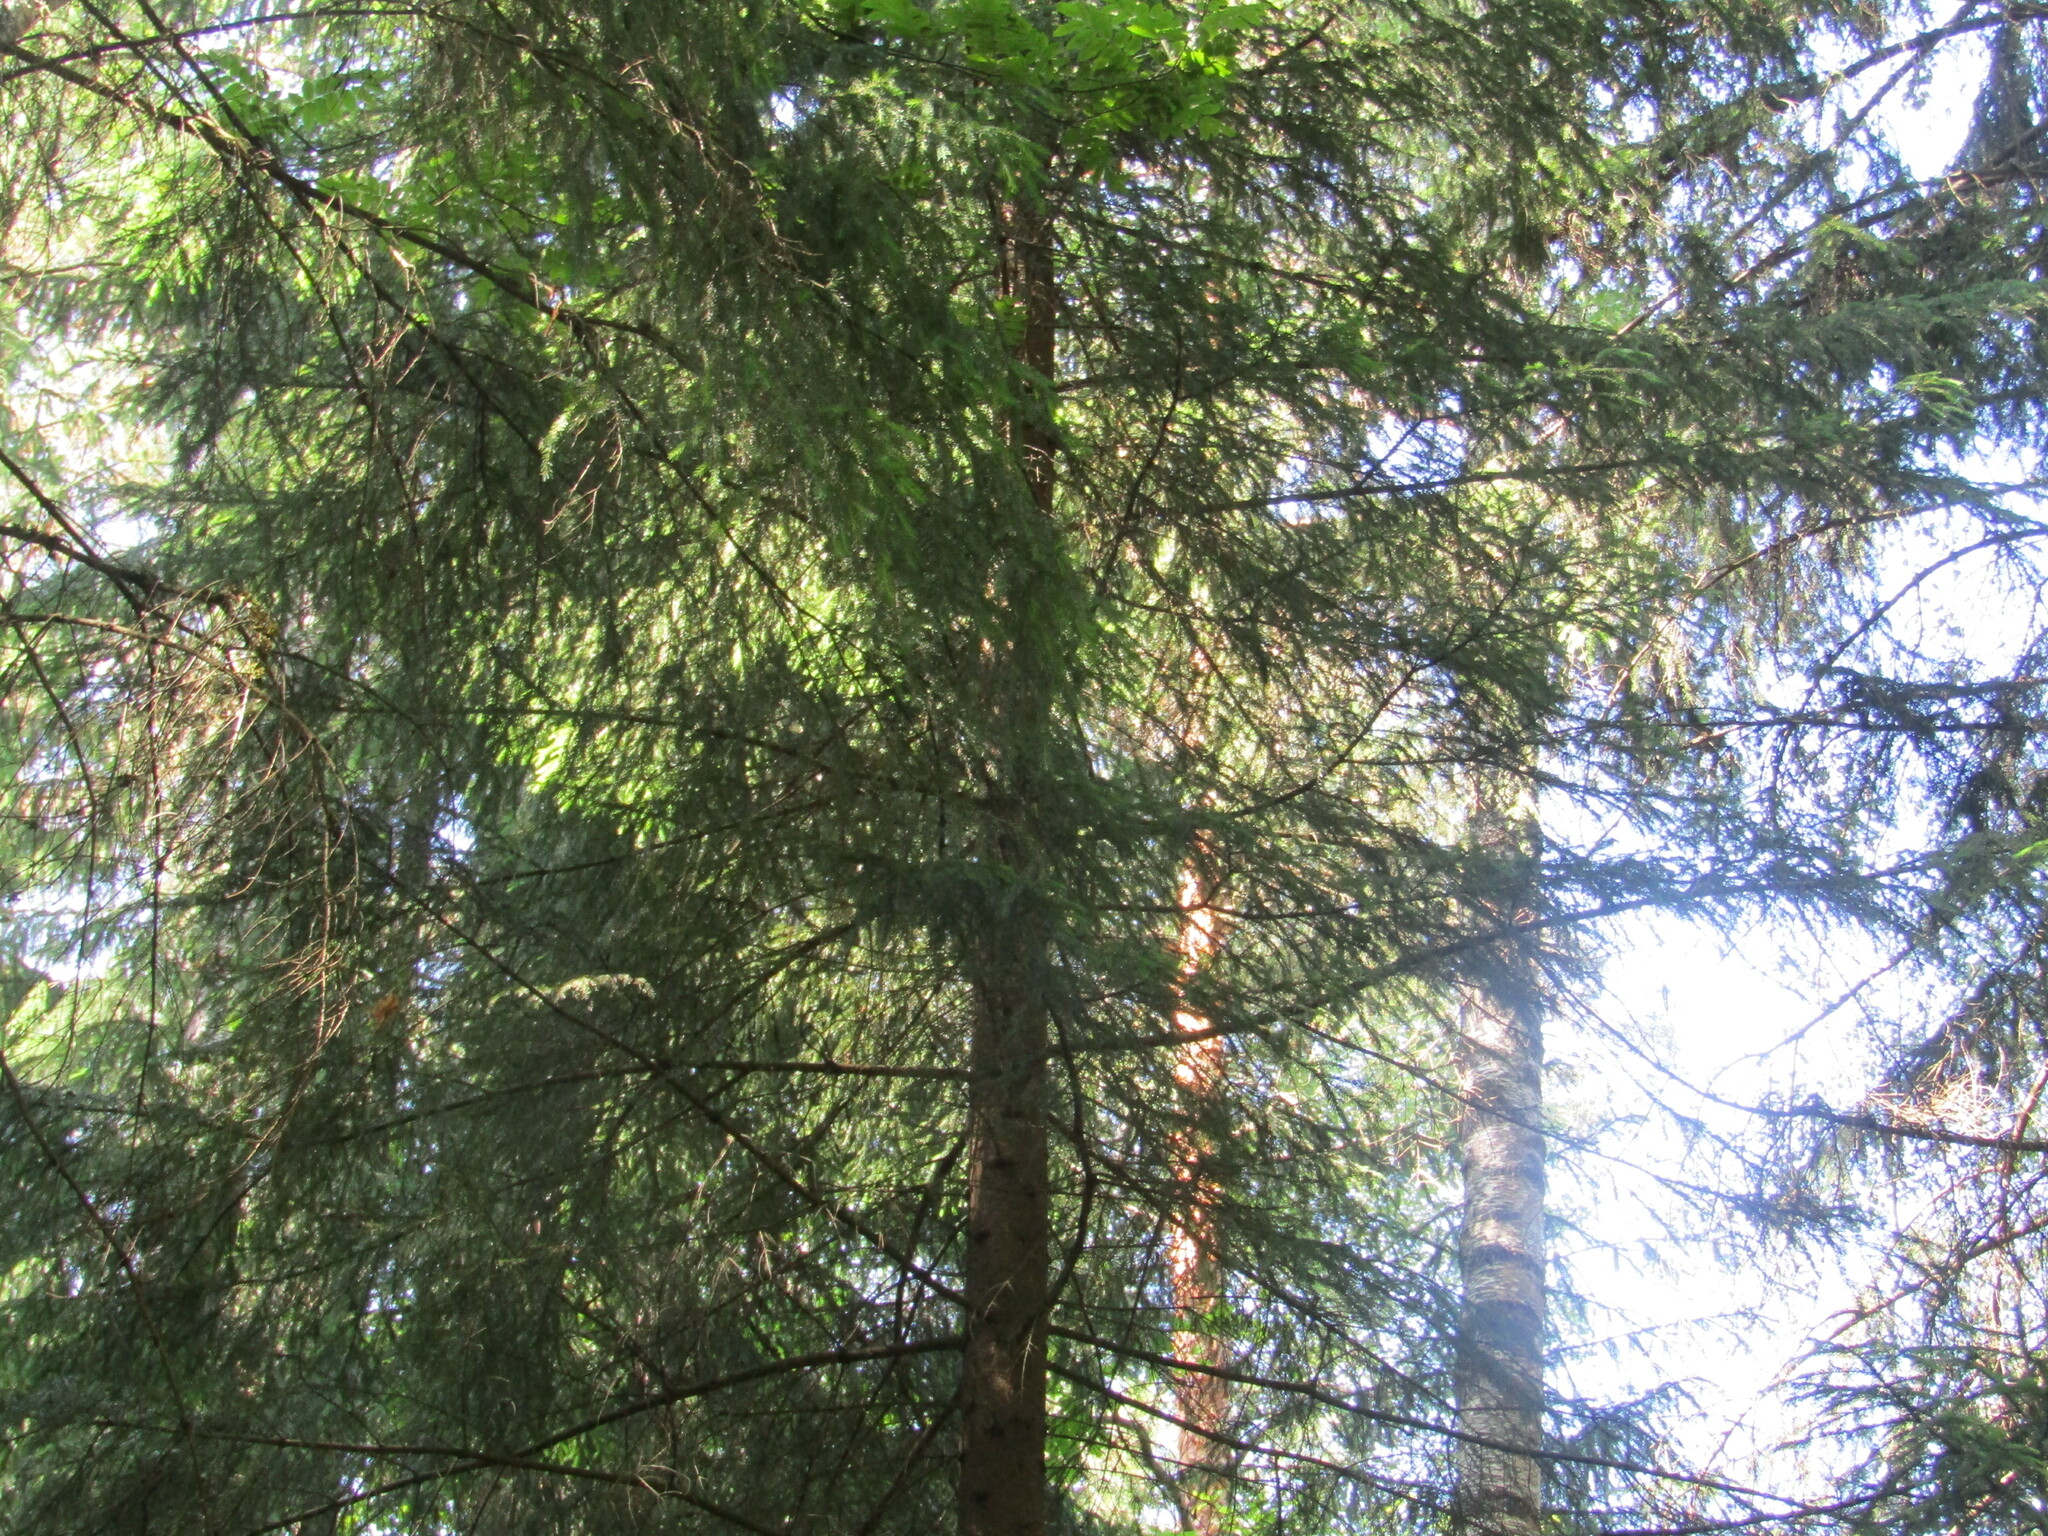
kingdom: Plantae
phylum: Tracheophyta
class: Pinopsida
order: Pinales
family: Pinaceae
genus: Picea
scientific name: Picea abies
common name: Norway spruce
